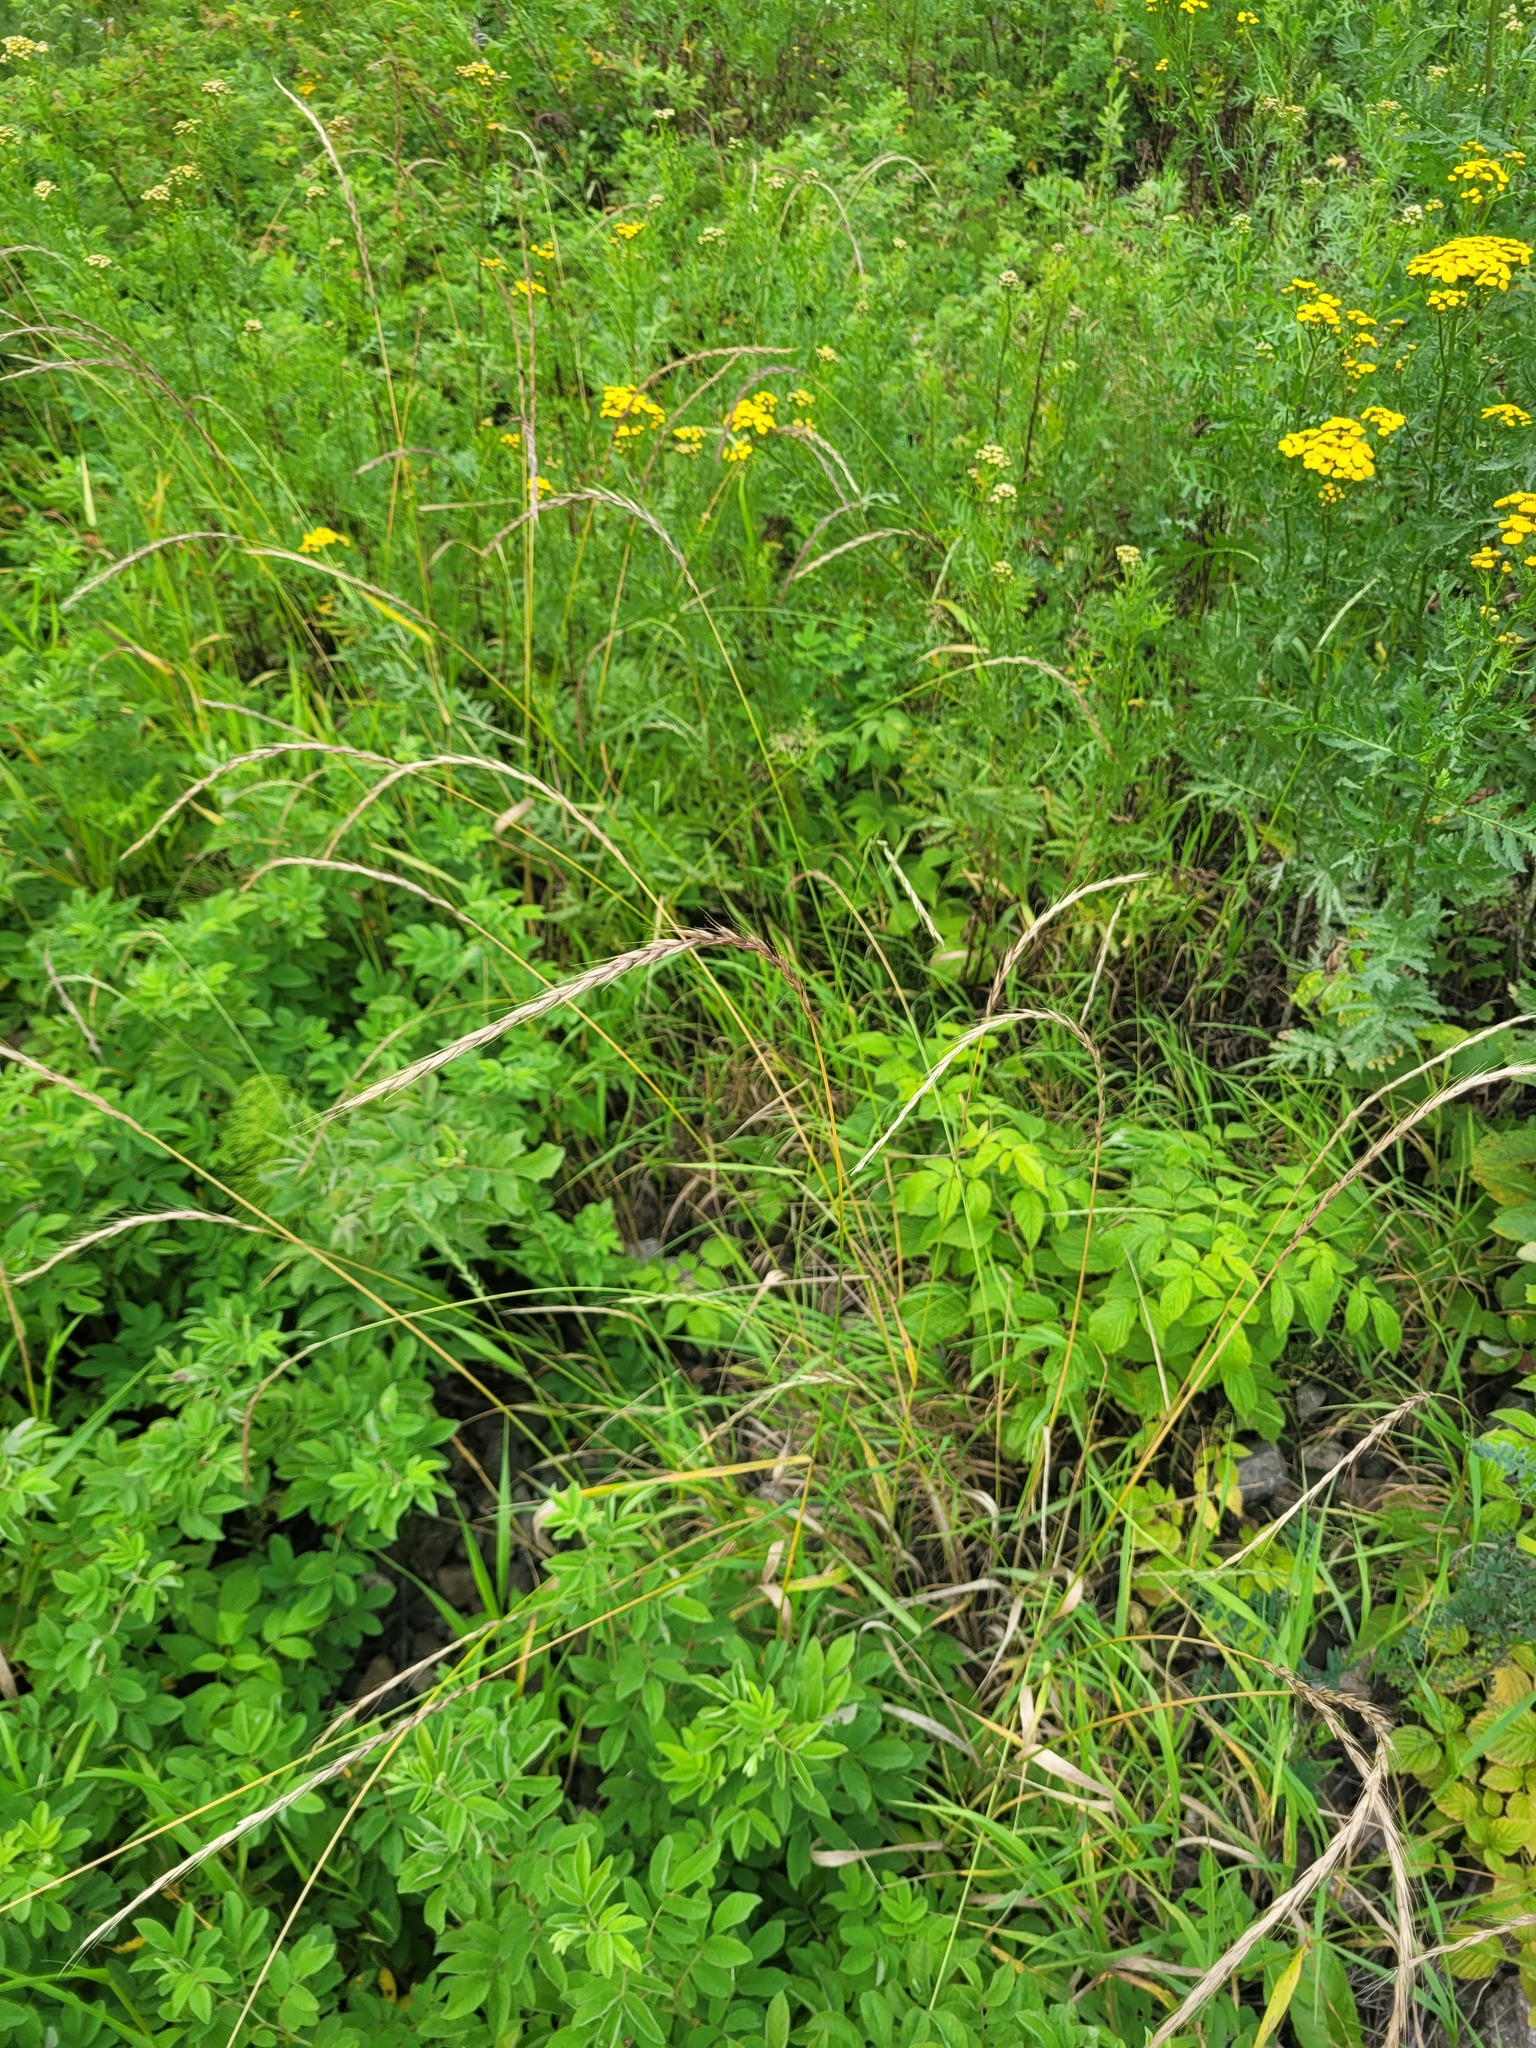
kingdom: Plantae
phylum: Tracheophyta
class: Liliopsida
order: Poales
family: Poaceae
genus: Elymus
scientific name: Elymus caninus
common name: Bearded couch
